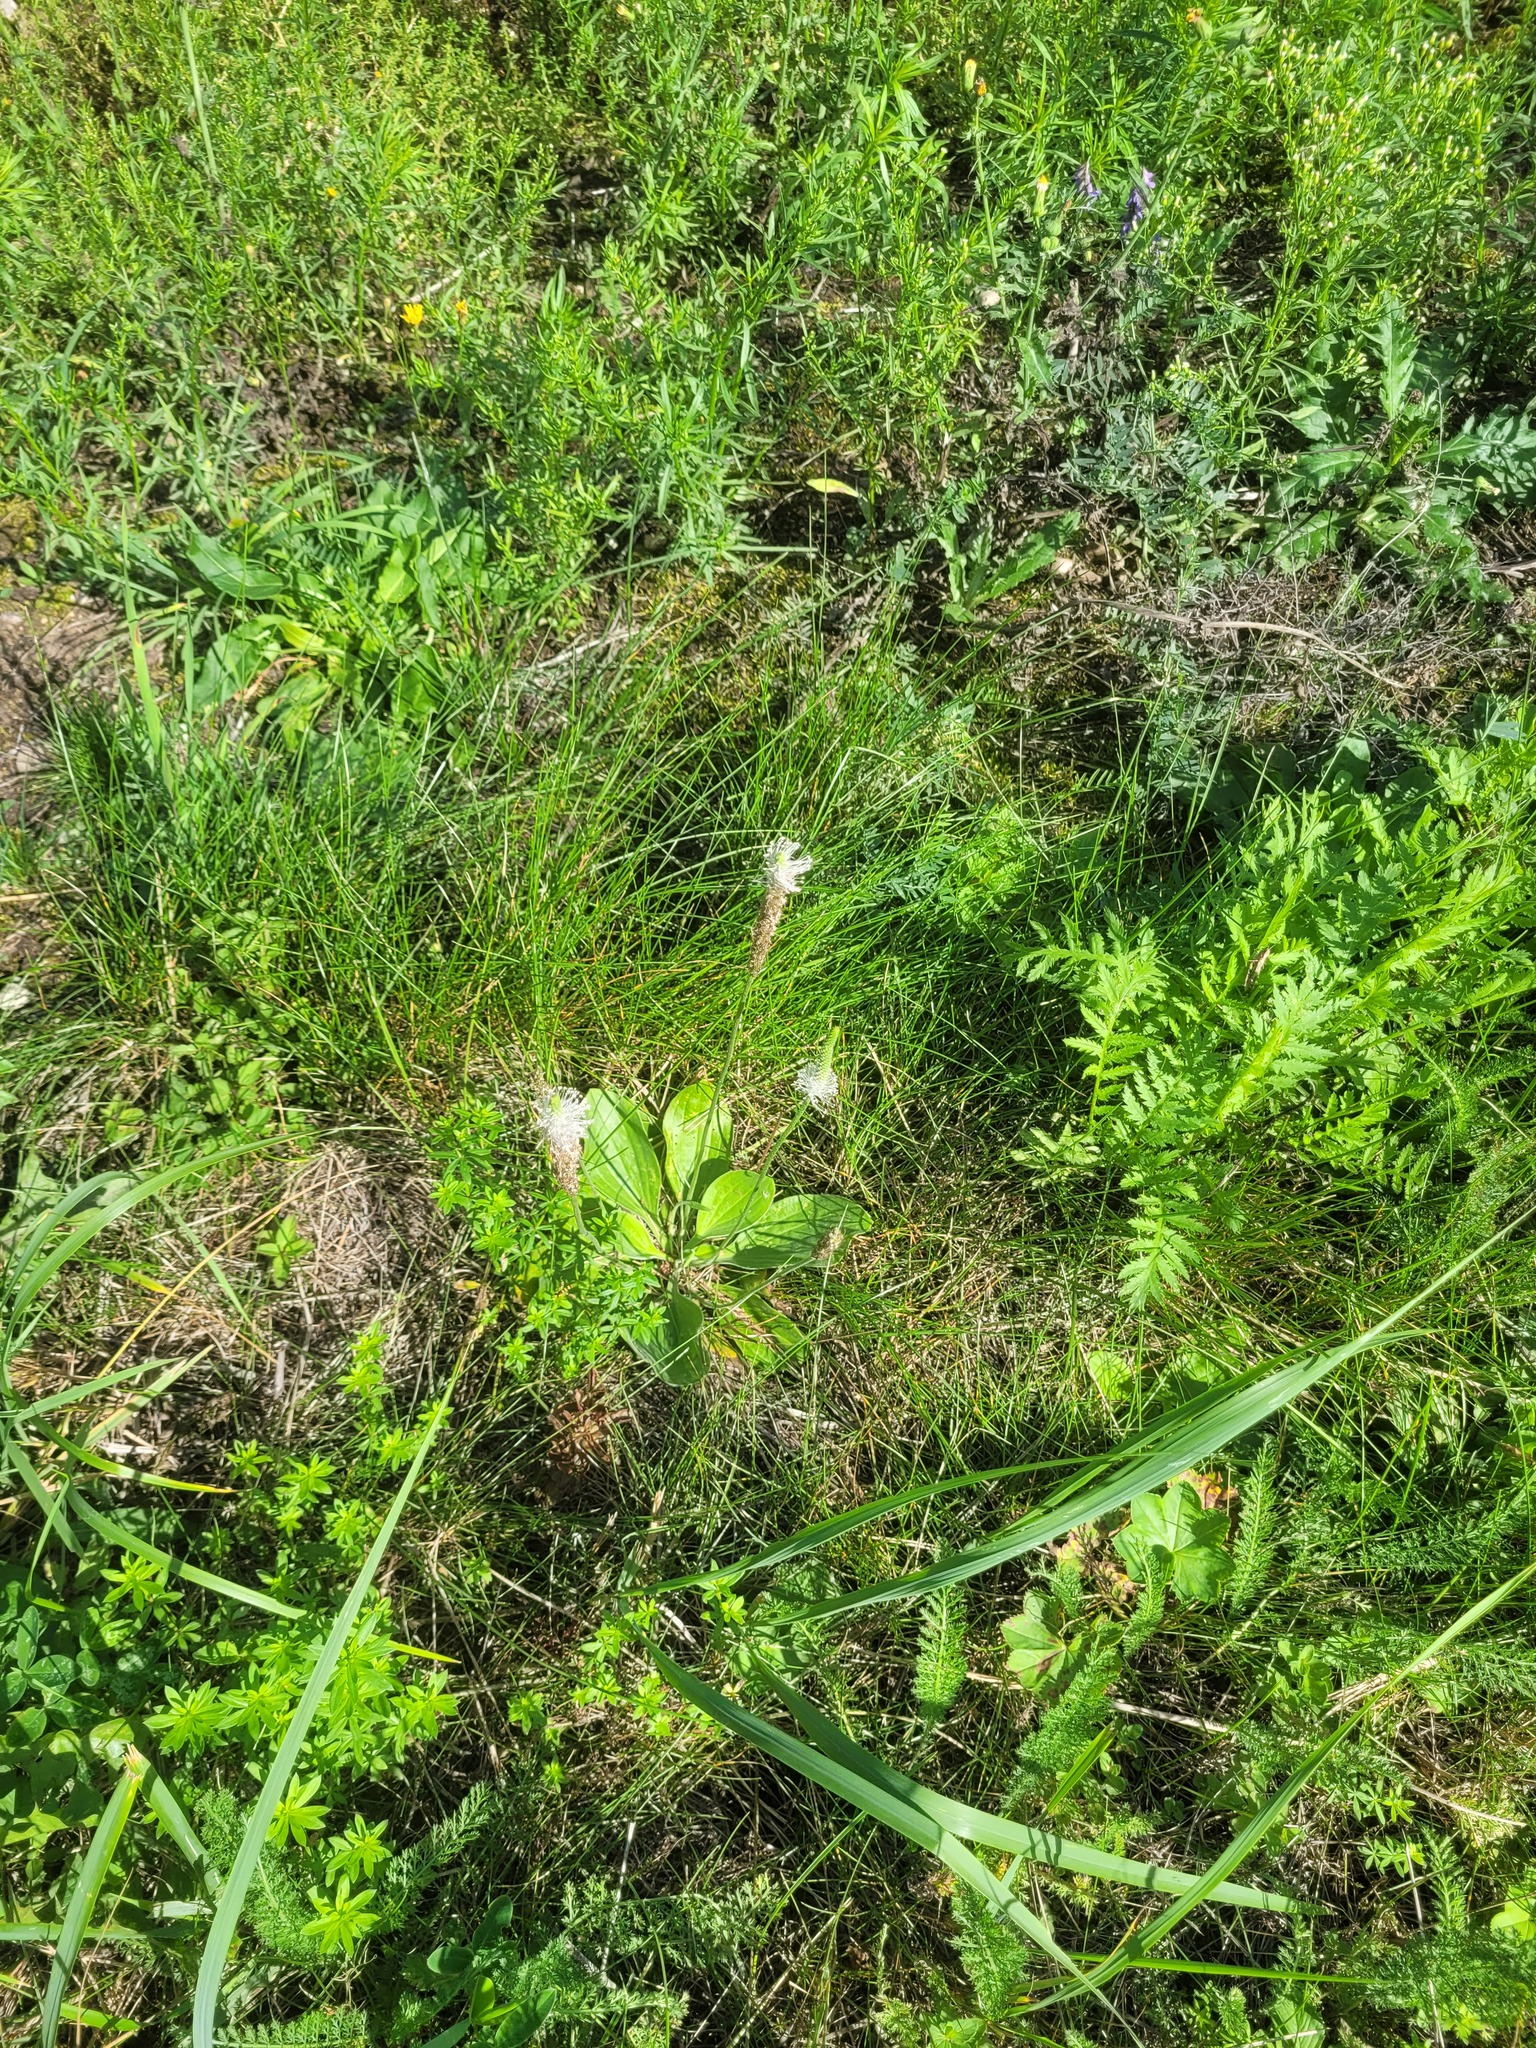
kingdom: Plantae
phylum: Tracheophyta
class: Magnoliopsida
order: Lamiales
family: Plantaginaceae
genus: Plantago
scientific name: Plantago media
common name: Hoary plantain
